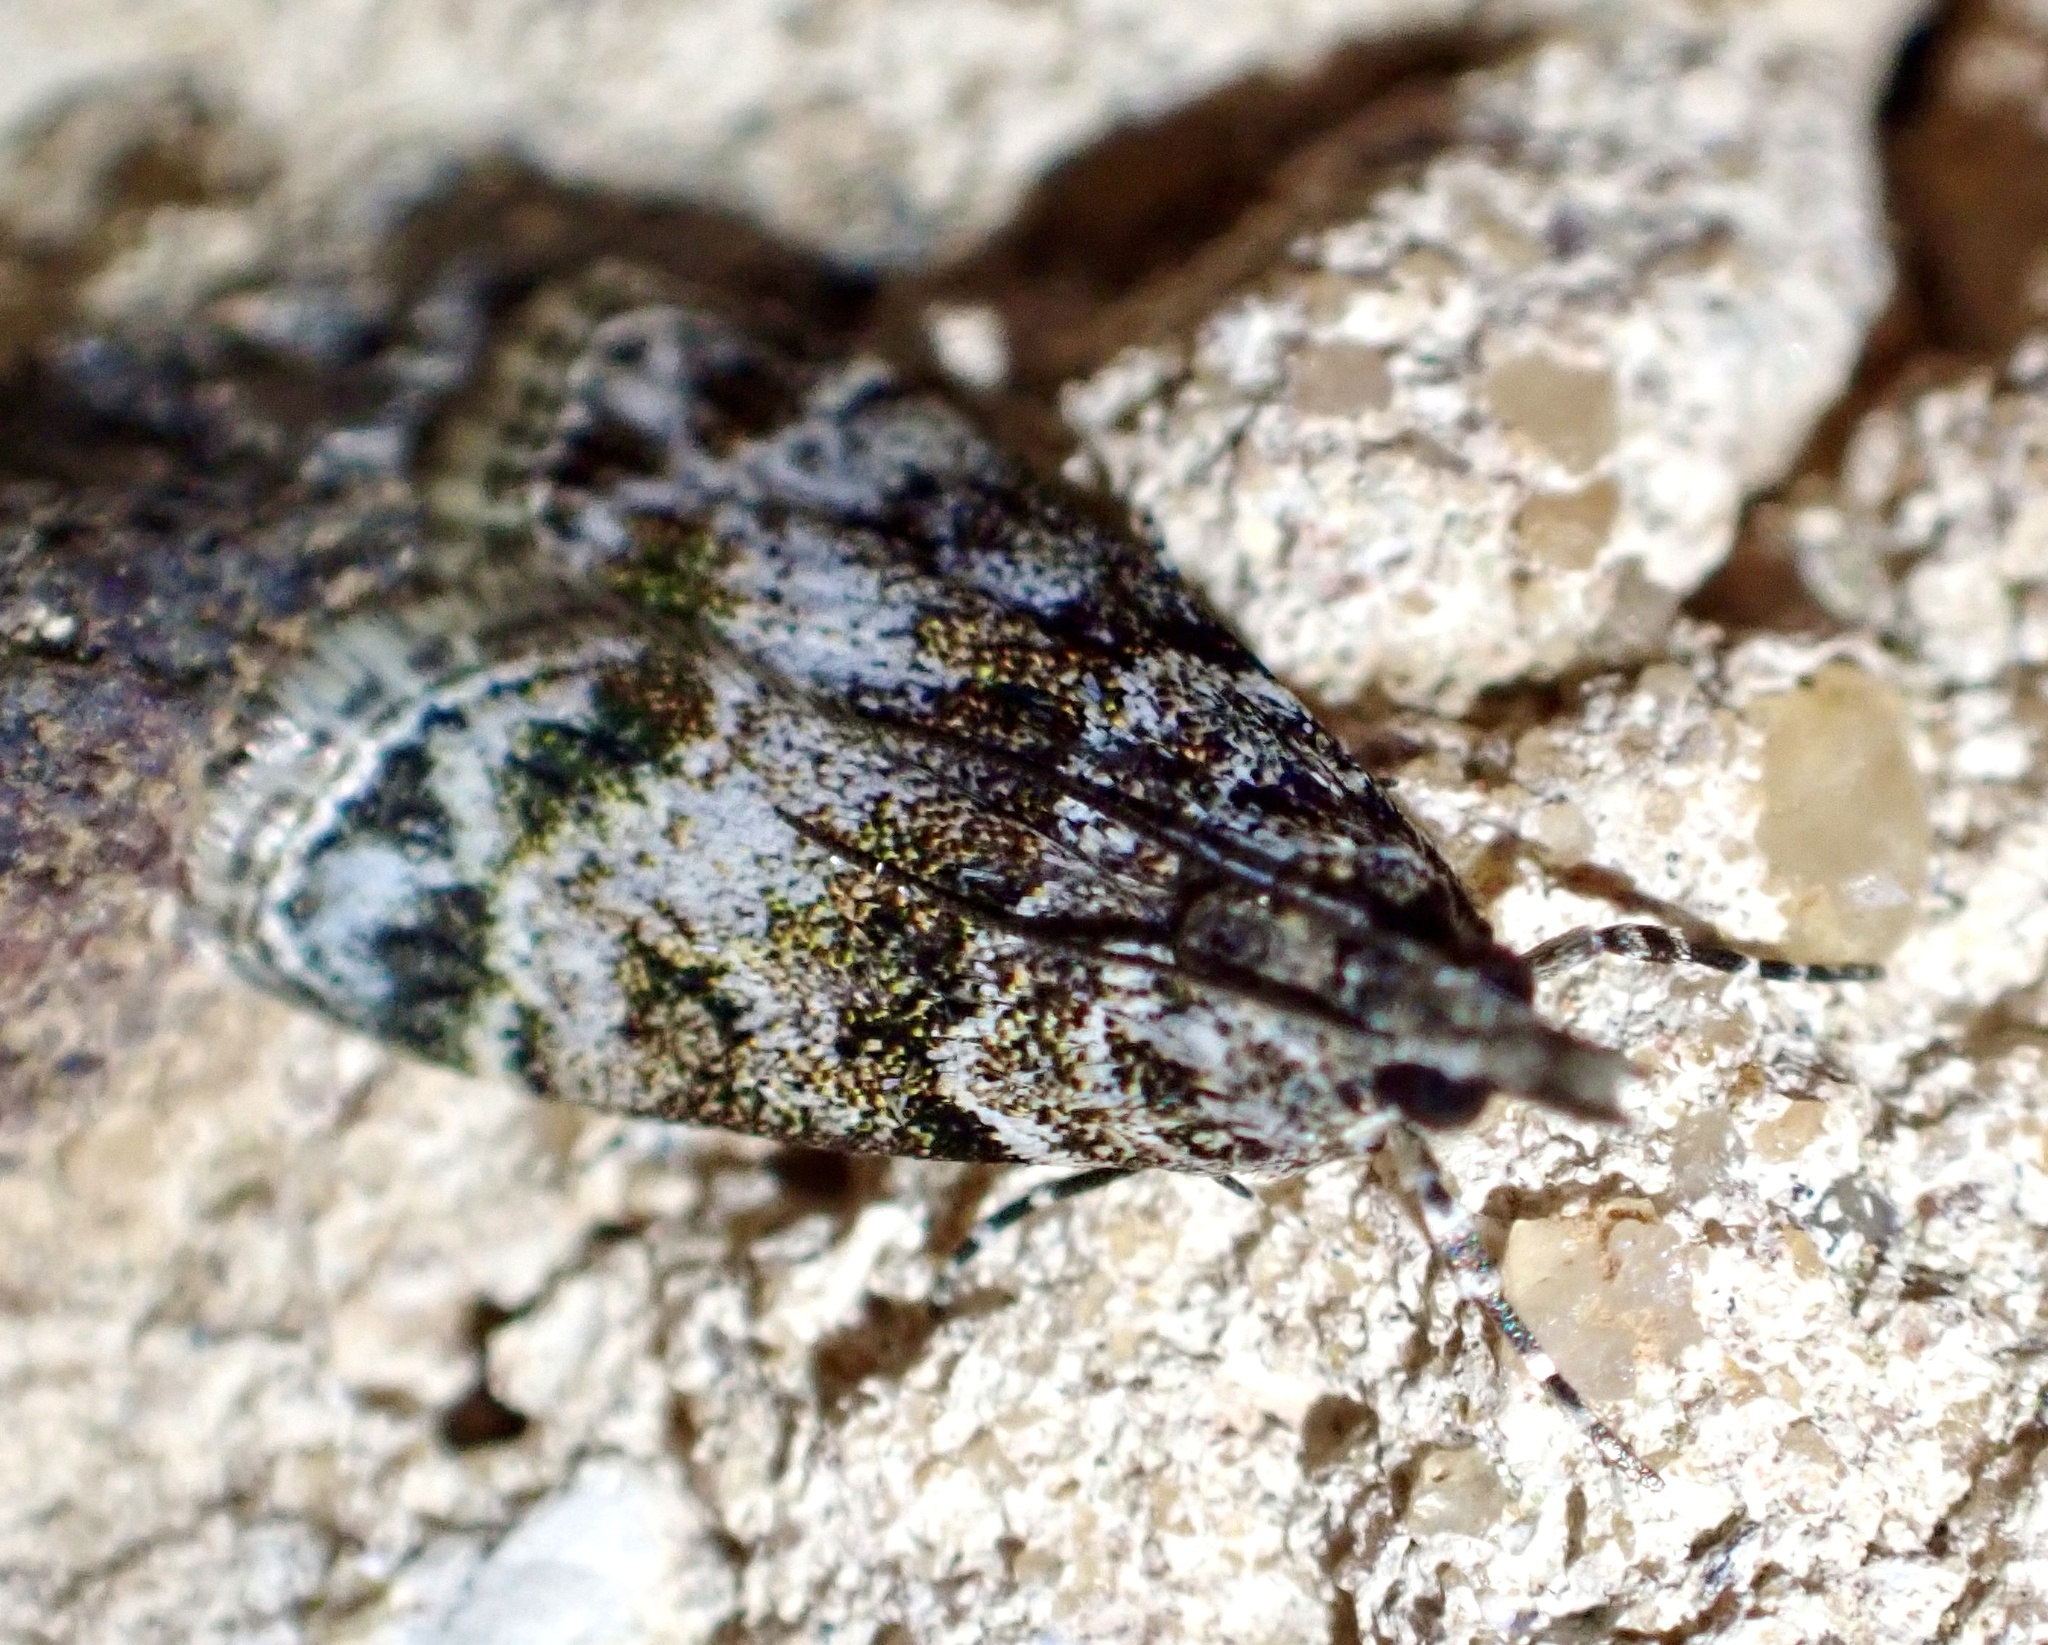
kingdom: Animalia
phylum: Arthropoda
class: Insecta
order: Lepidoptera
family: Crambidae
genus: Eudonia
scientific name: Eudonia mercurella
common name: Small grey
